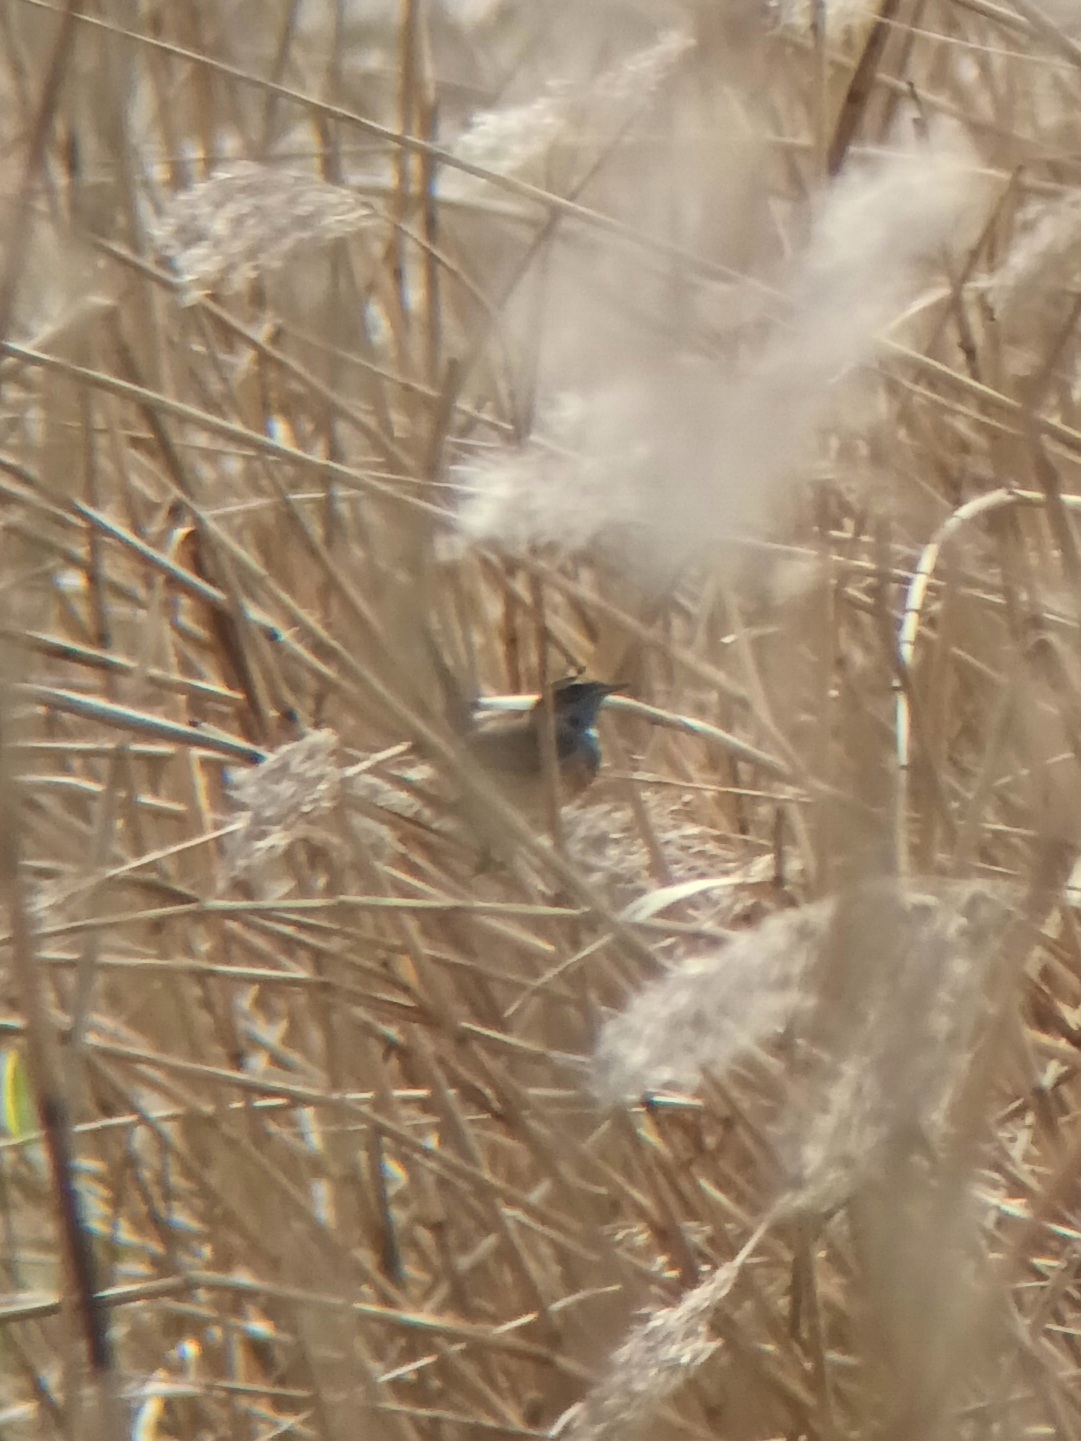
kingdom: Animalia
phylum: Chordata
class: Aves
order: Passeriformes
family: Muscicapidae
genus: Luscinia
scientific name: Luscinia svecica
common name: Bluethroat
